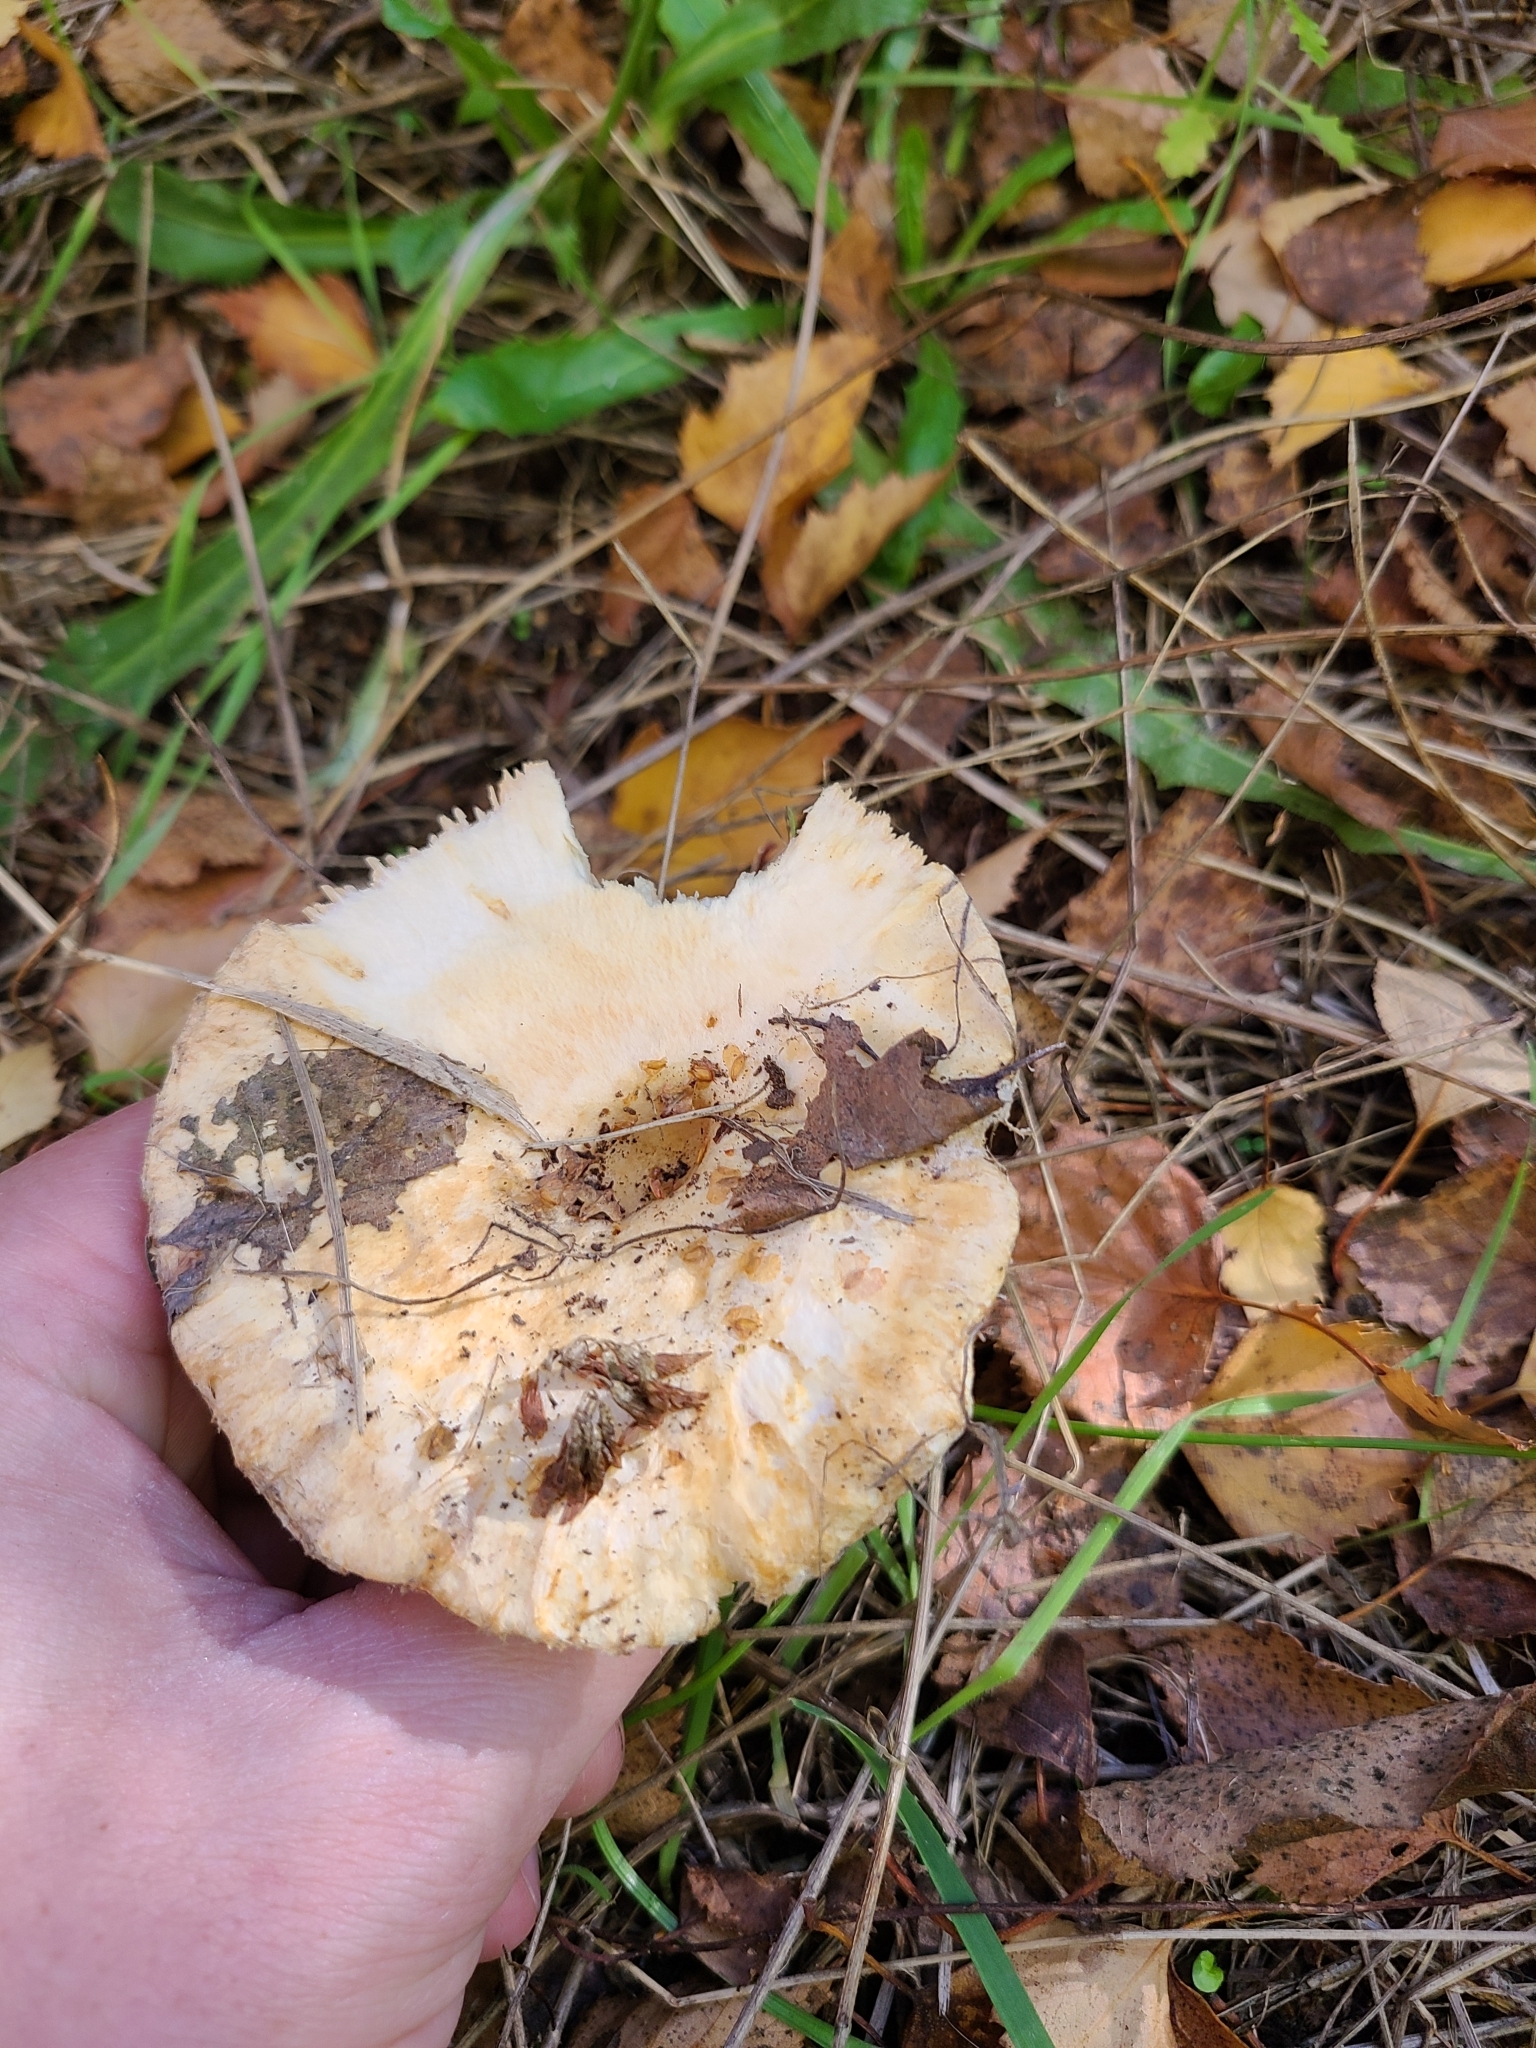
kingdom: Fungi
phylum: Basidiomycota
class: Agaricomycetes
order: Russulales
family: Russulaceae
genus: Lactarius
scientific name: Lactarius pubescens
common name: Bearded milkcap
